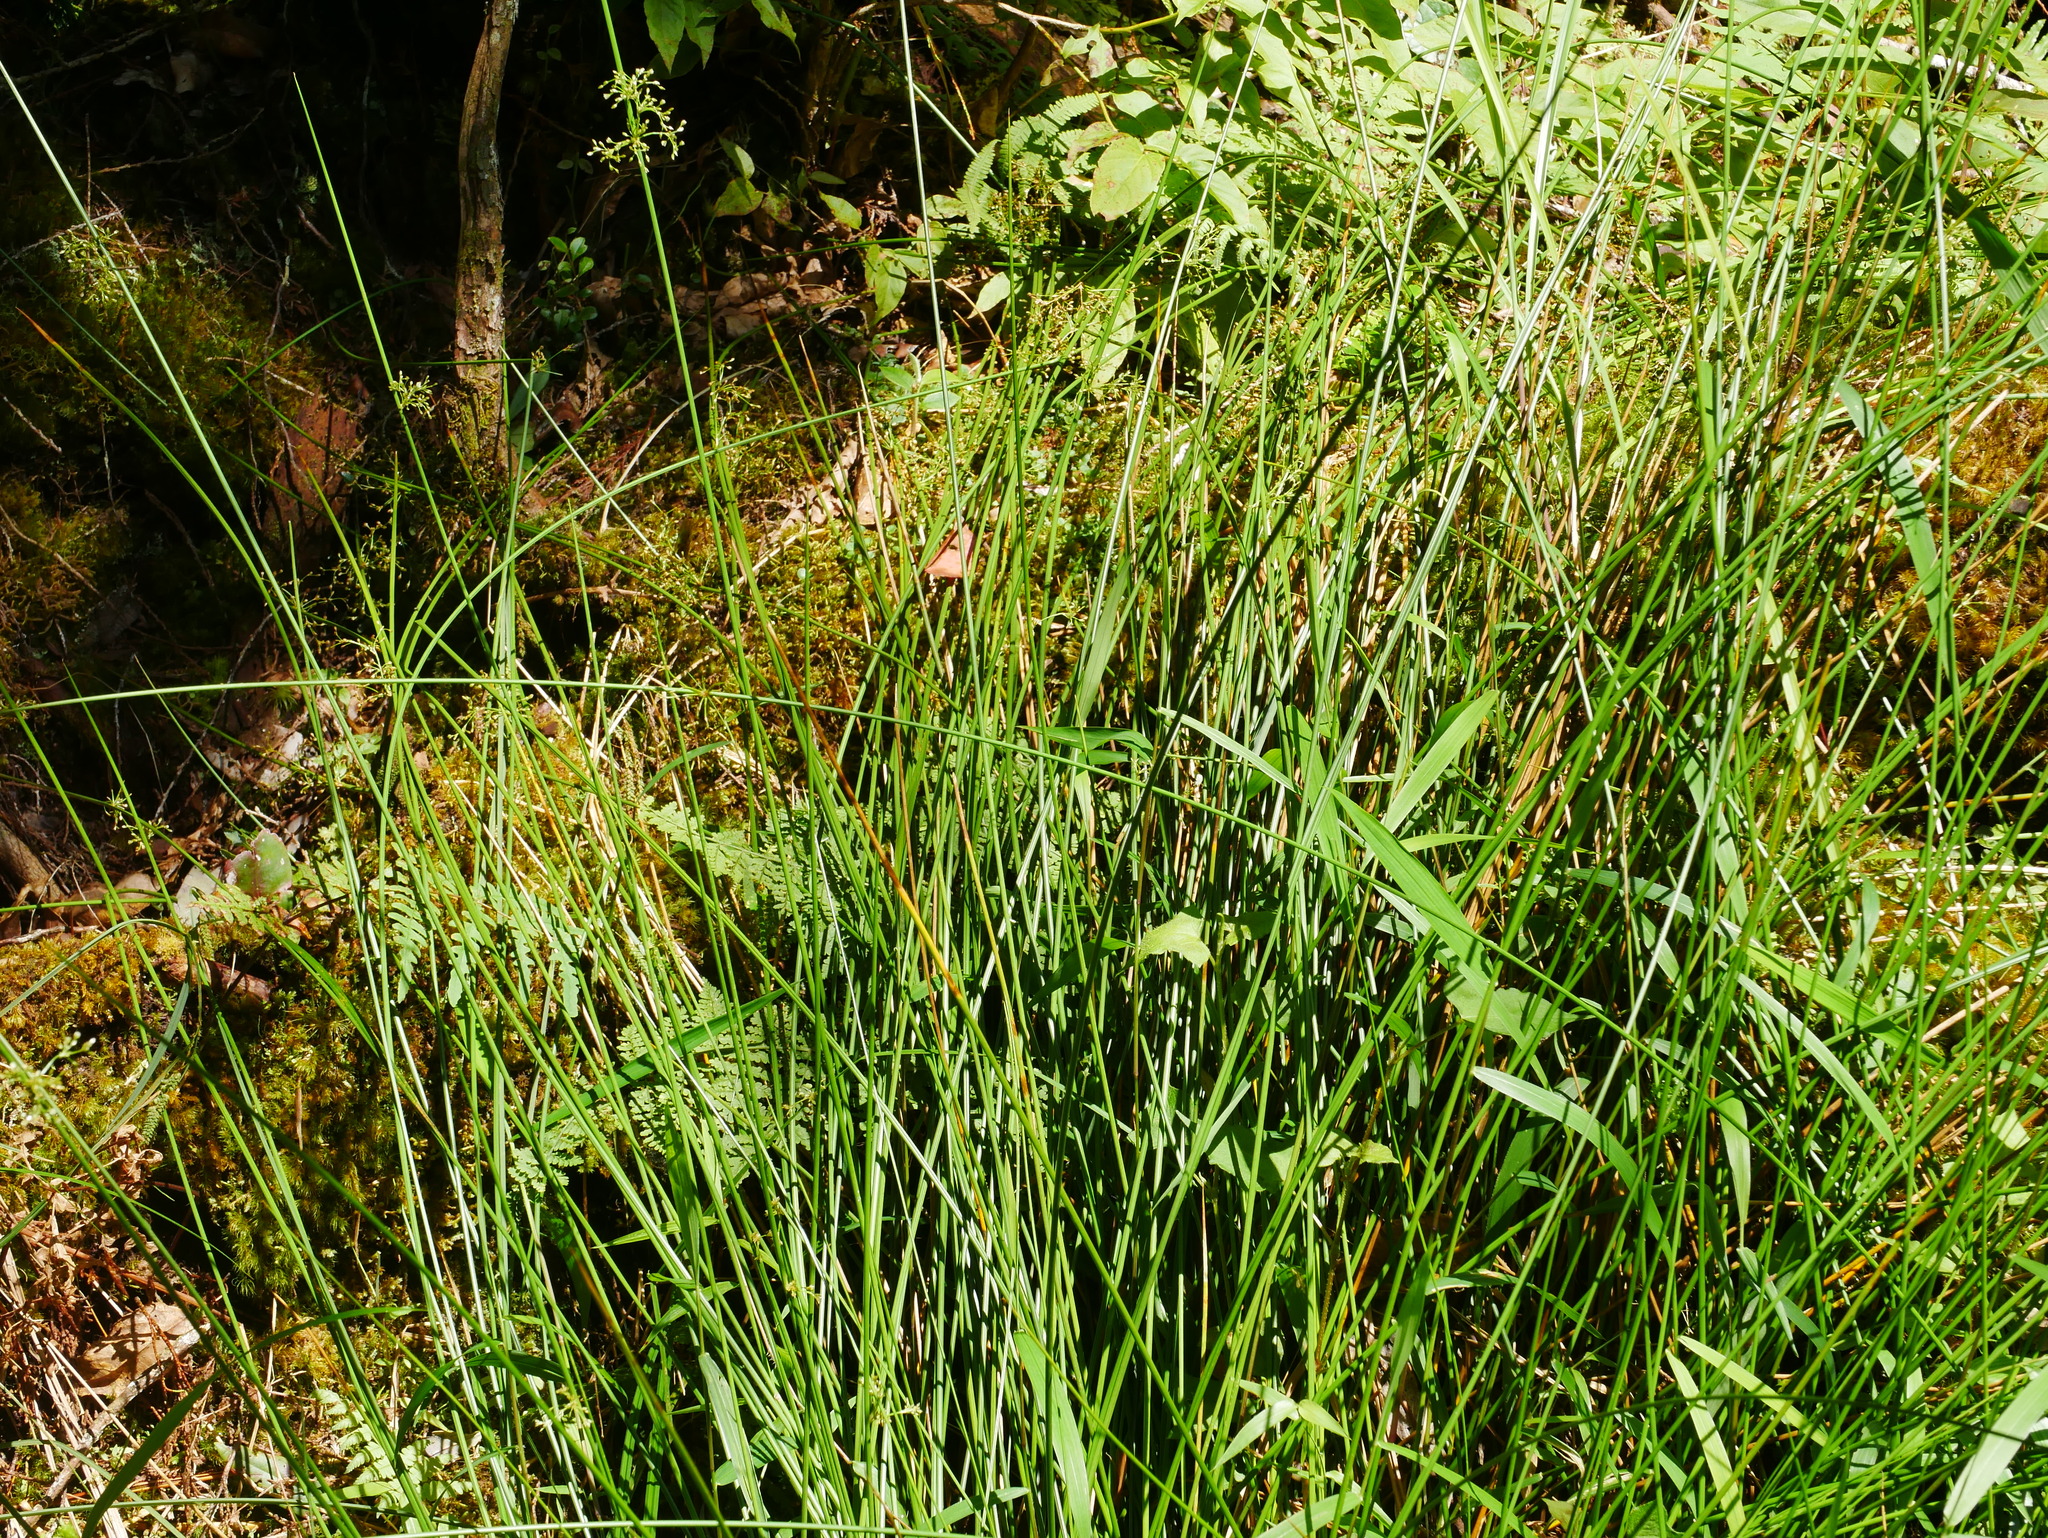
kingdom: Plantae
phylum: Tracheophyta
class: Liliopsida
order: Poales
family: Juncaceae
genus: Juncus
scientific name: Juncus tobdeniorum
